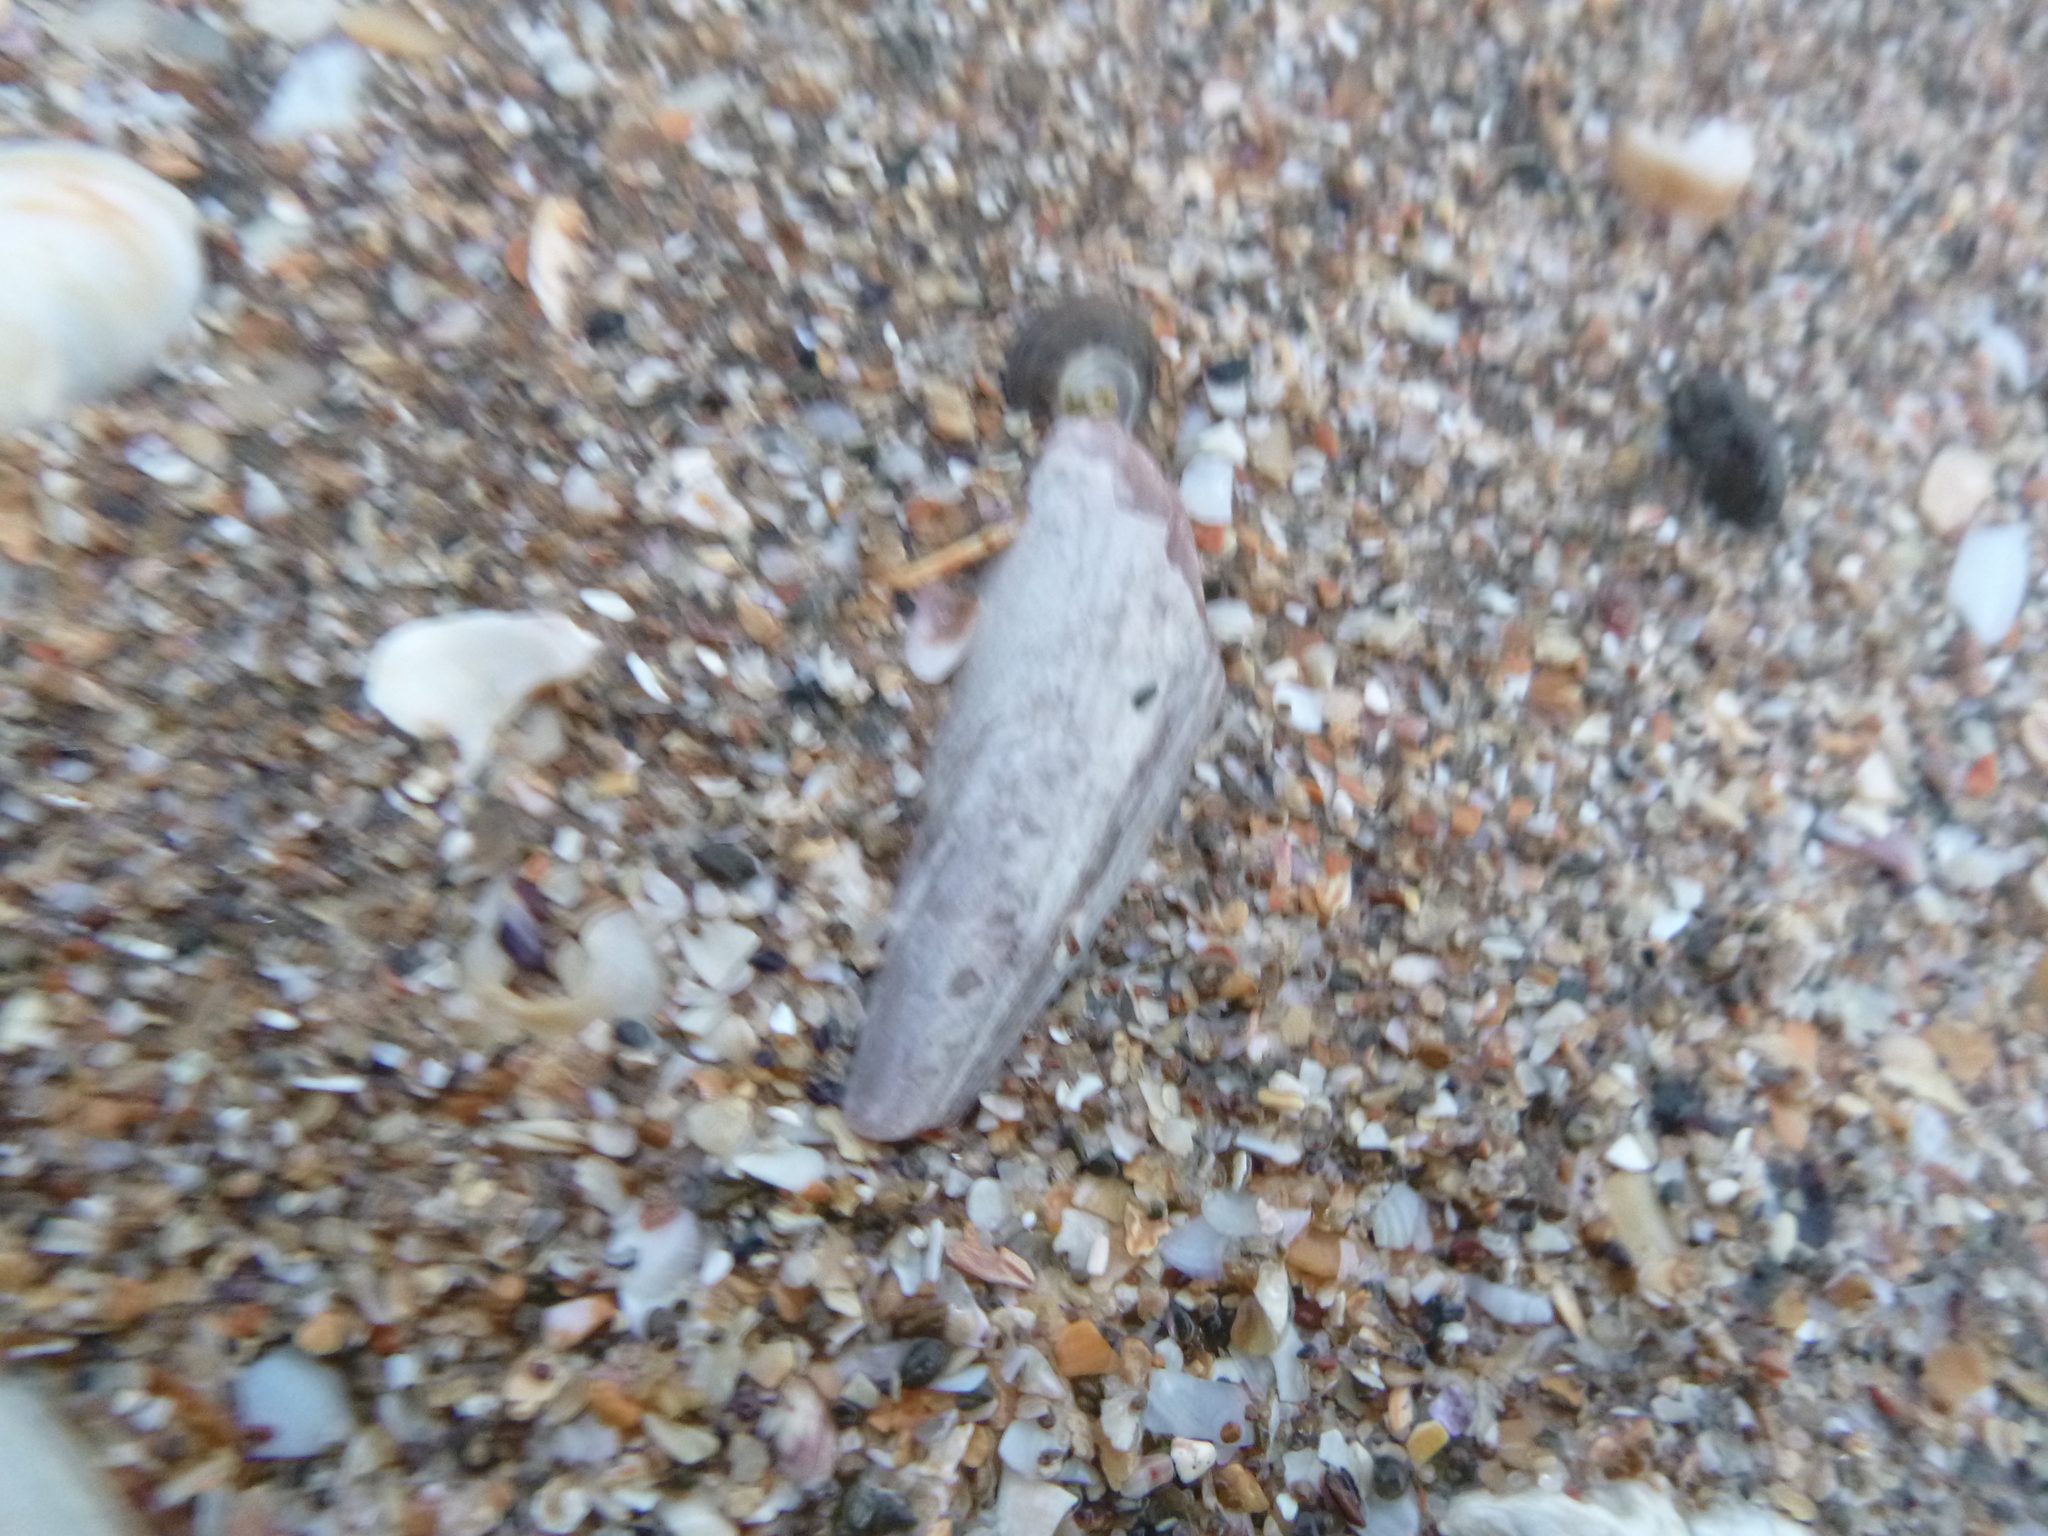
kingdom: Animalia
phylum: Mollusca
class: Bivalvia
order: Ostreida
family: Pinnidae
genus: Atrina
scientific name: Atrina zelandica
